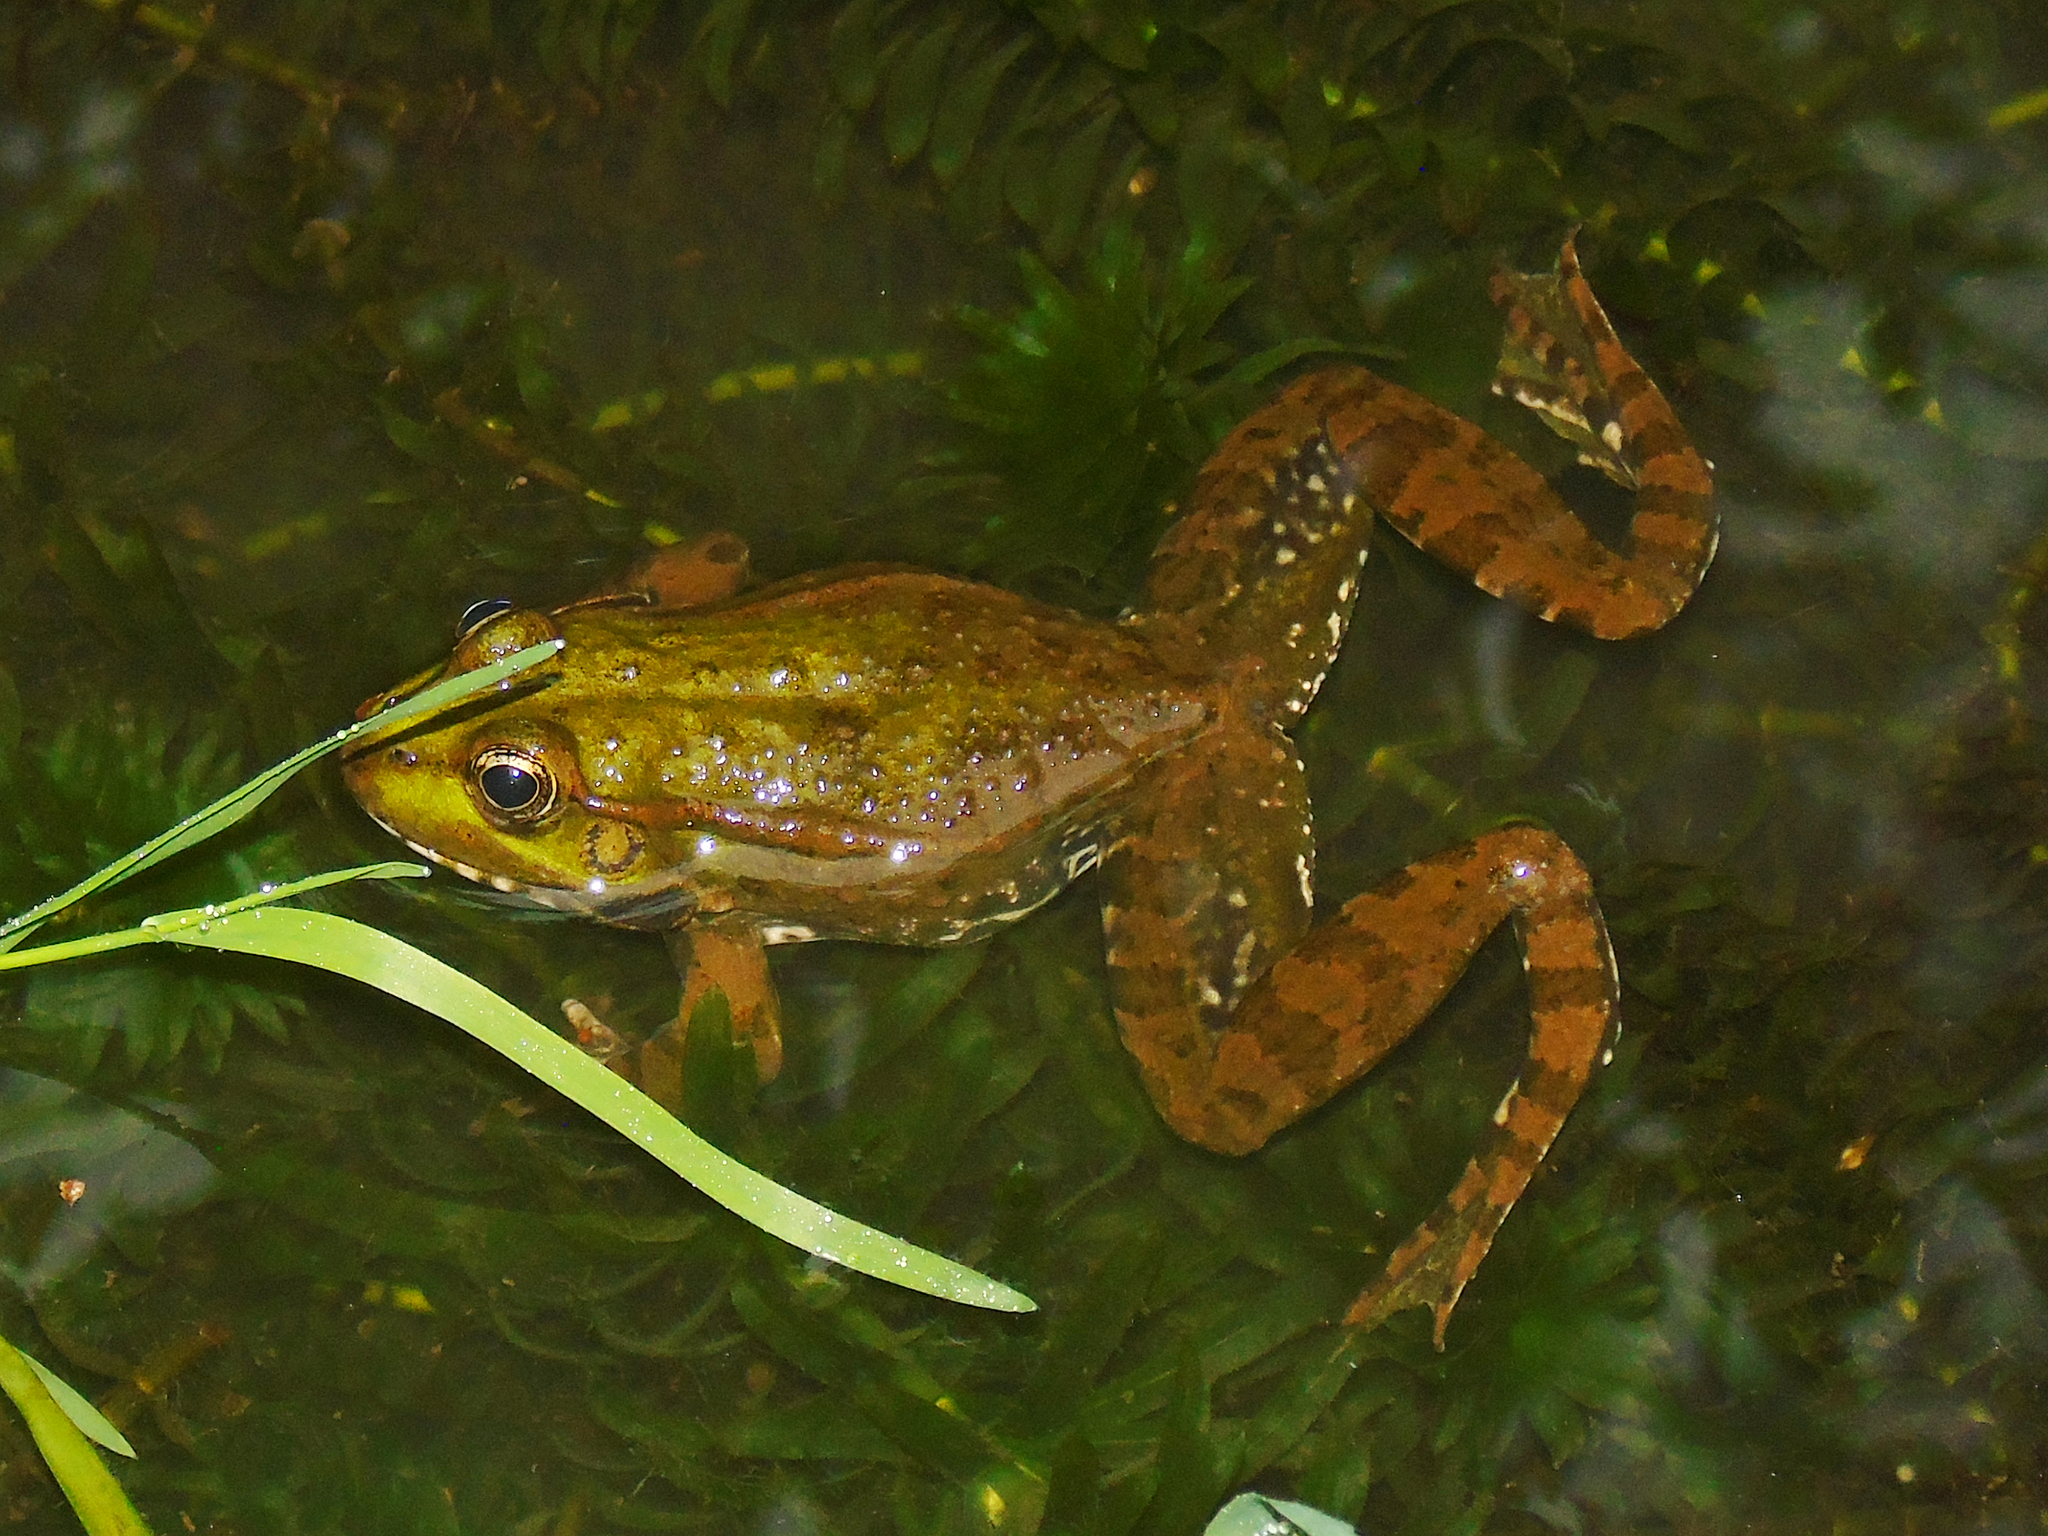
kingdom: Animalia
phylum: Chordata
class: Amphibia
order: Anura
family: Ranidae
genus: Pelophylax
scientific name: Pelophylax ridibundus
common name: Marsh frog
